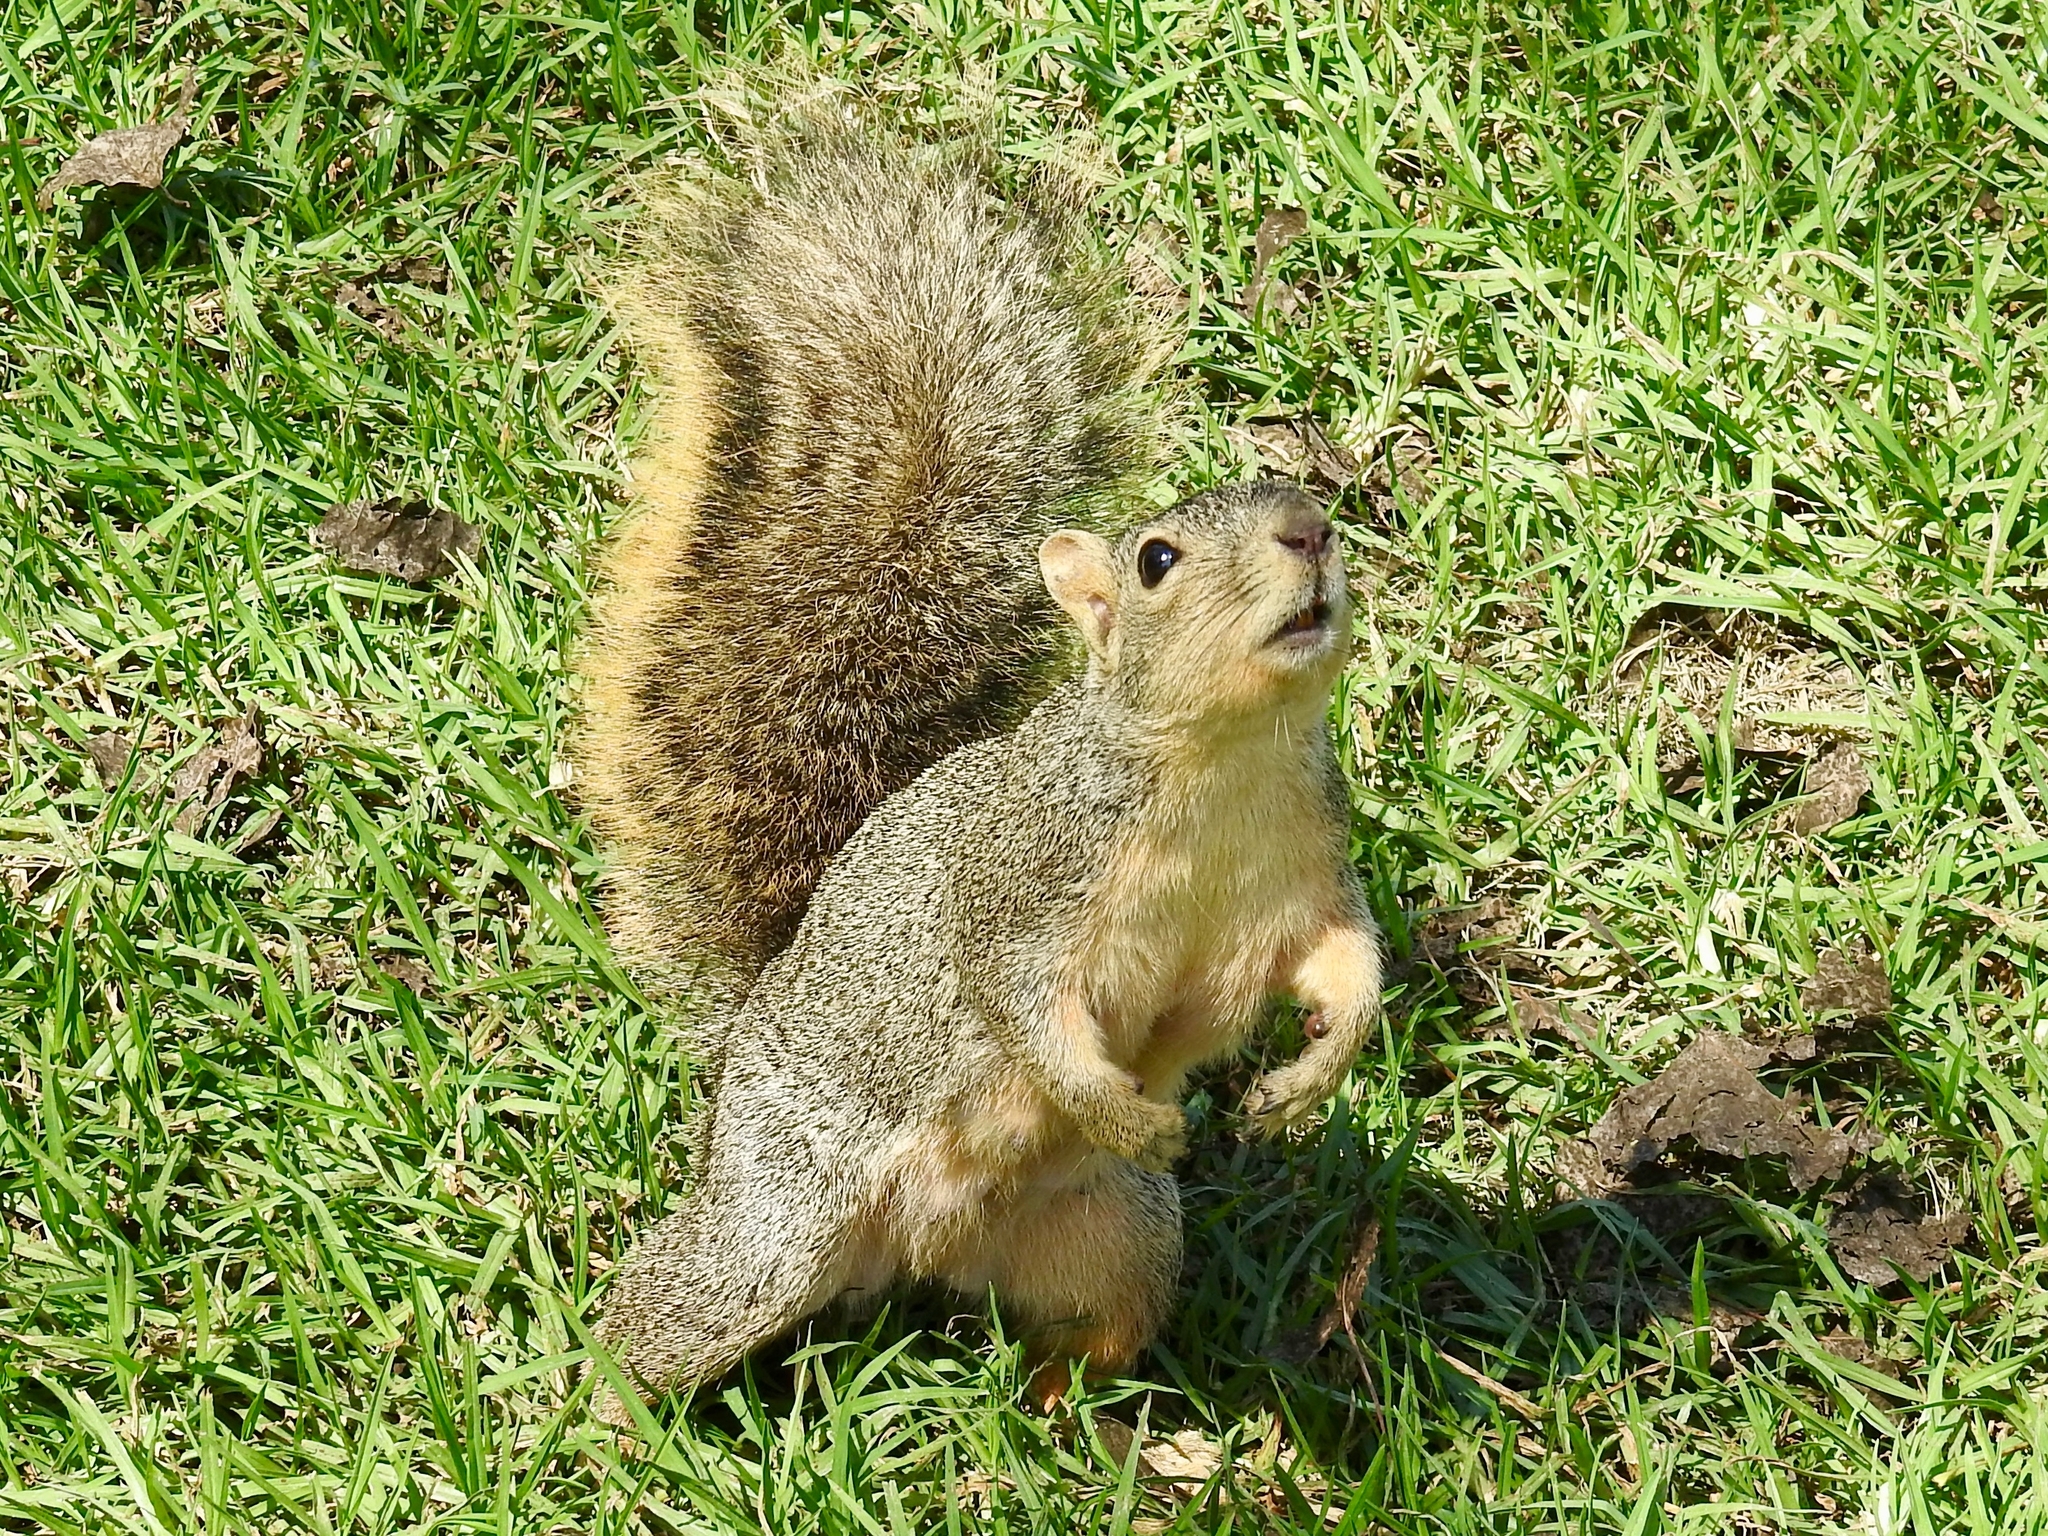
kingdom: Animalia
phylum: Chordata
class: Mammalia
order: Rodentia
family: Sciuridae
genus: Sciurus
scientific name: Sciurus niger
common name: Fox squirrel
